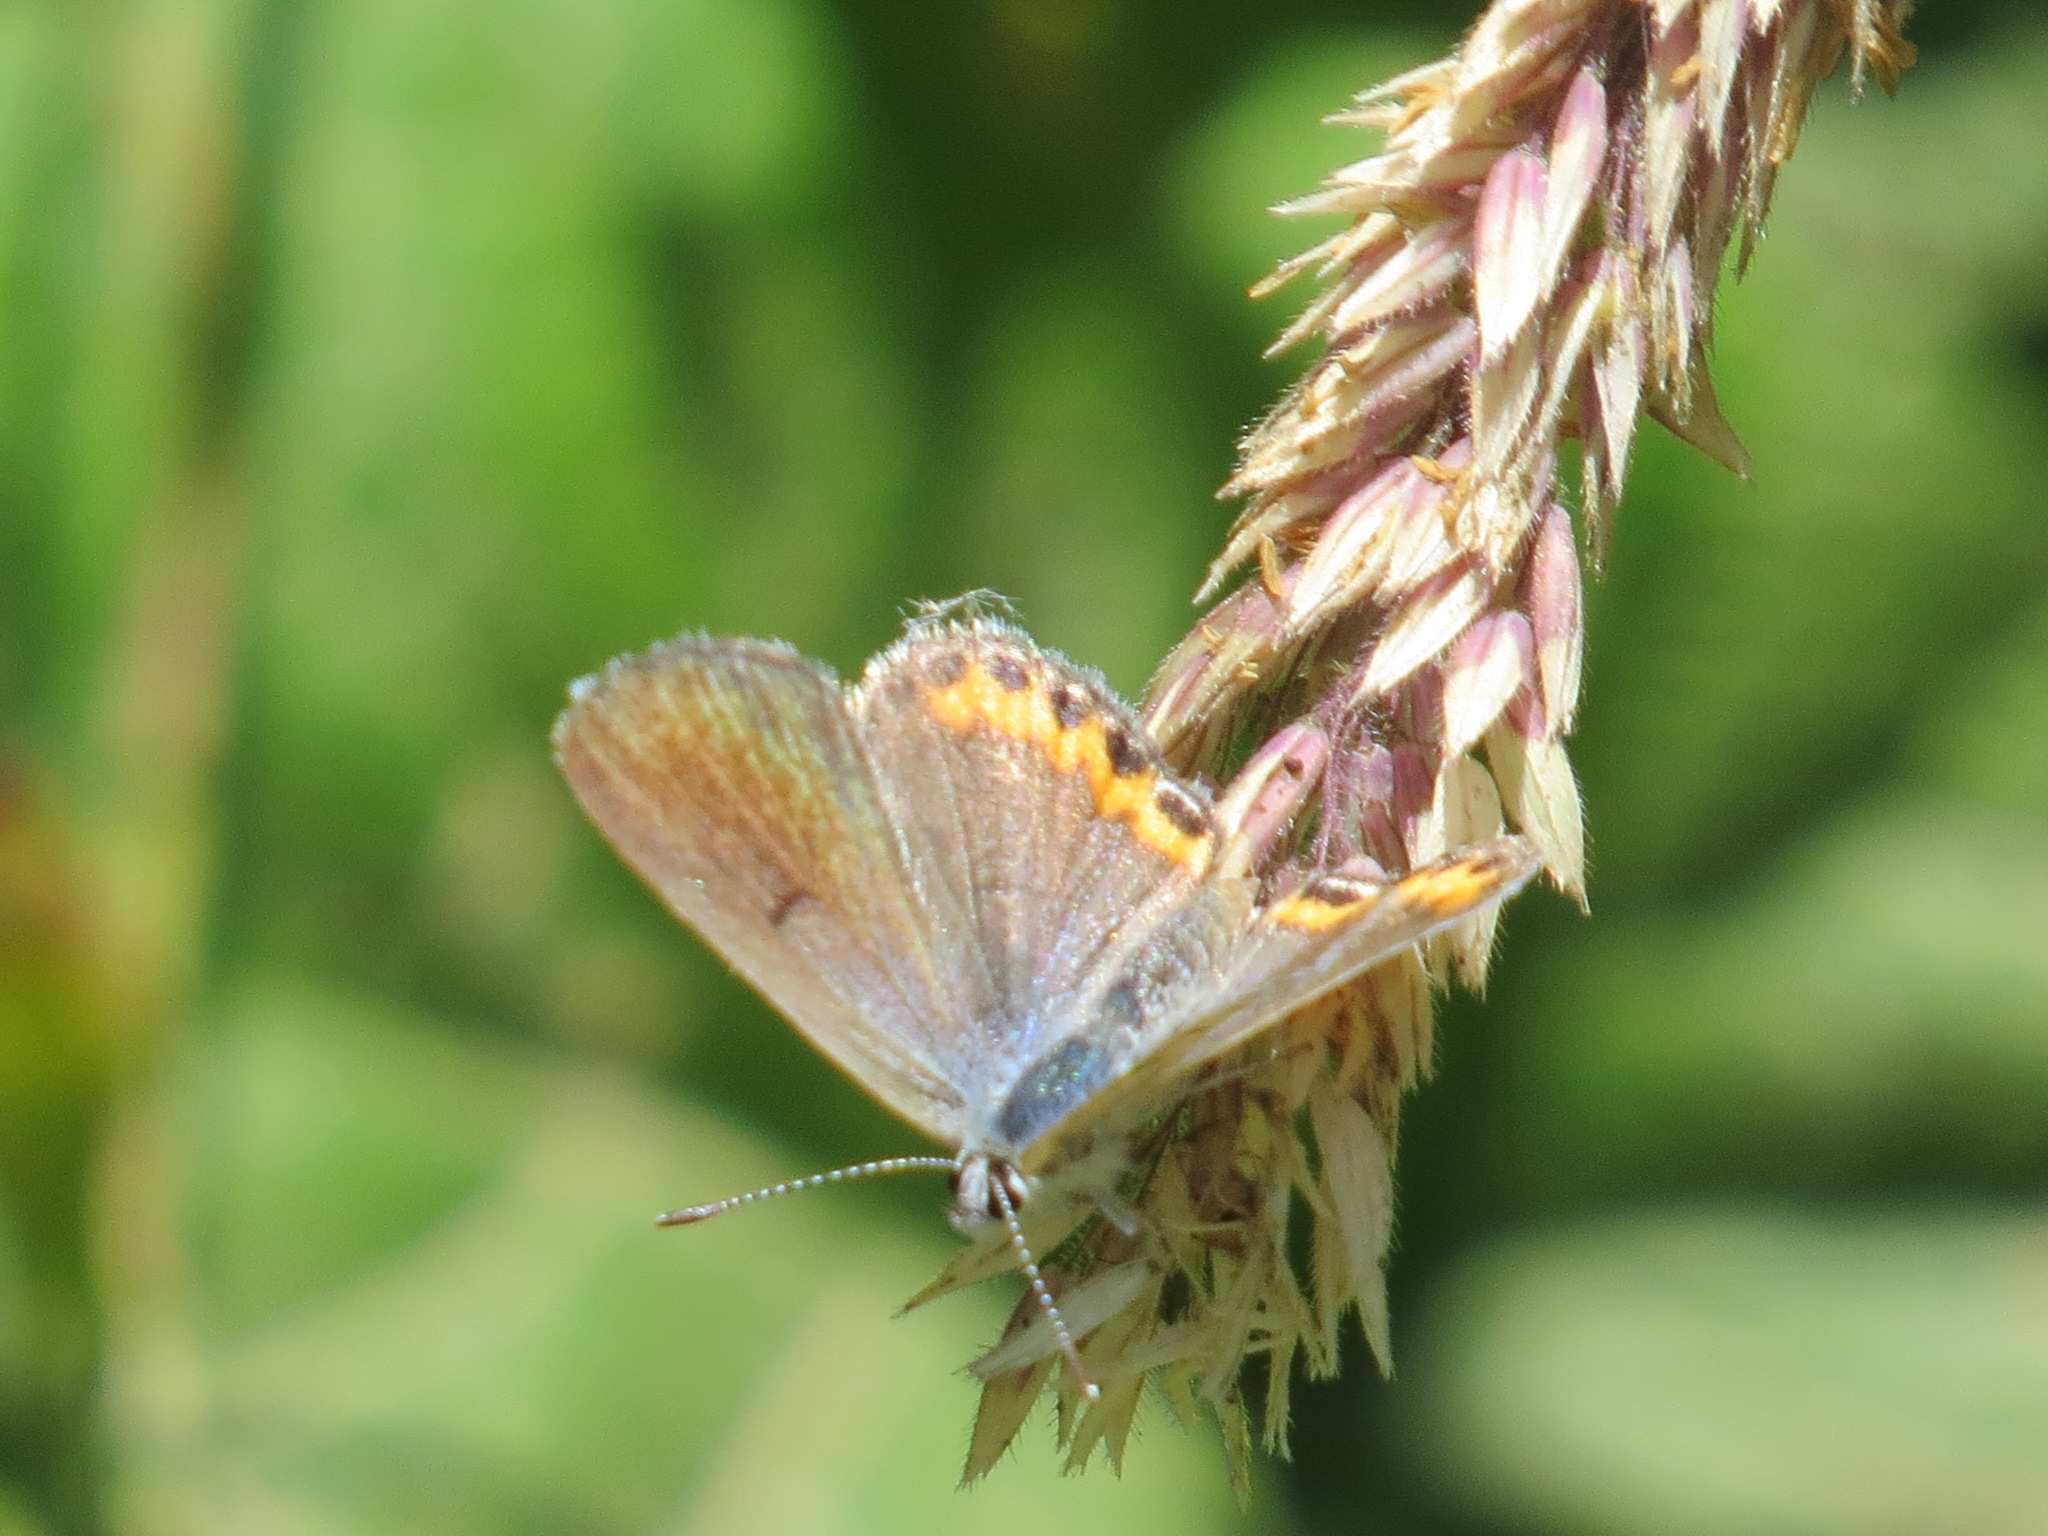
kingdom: Animalia
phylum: Arthropoda
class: Insecta
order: Lepidoptera
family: Lycaenidae
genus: Icaricia
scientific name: Icaricia acmon
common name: Acmon blue
